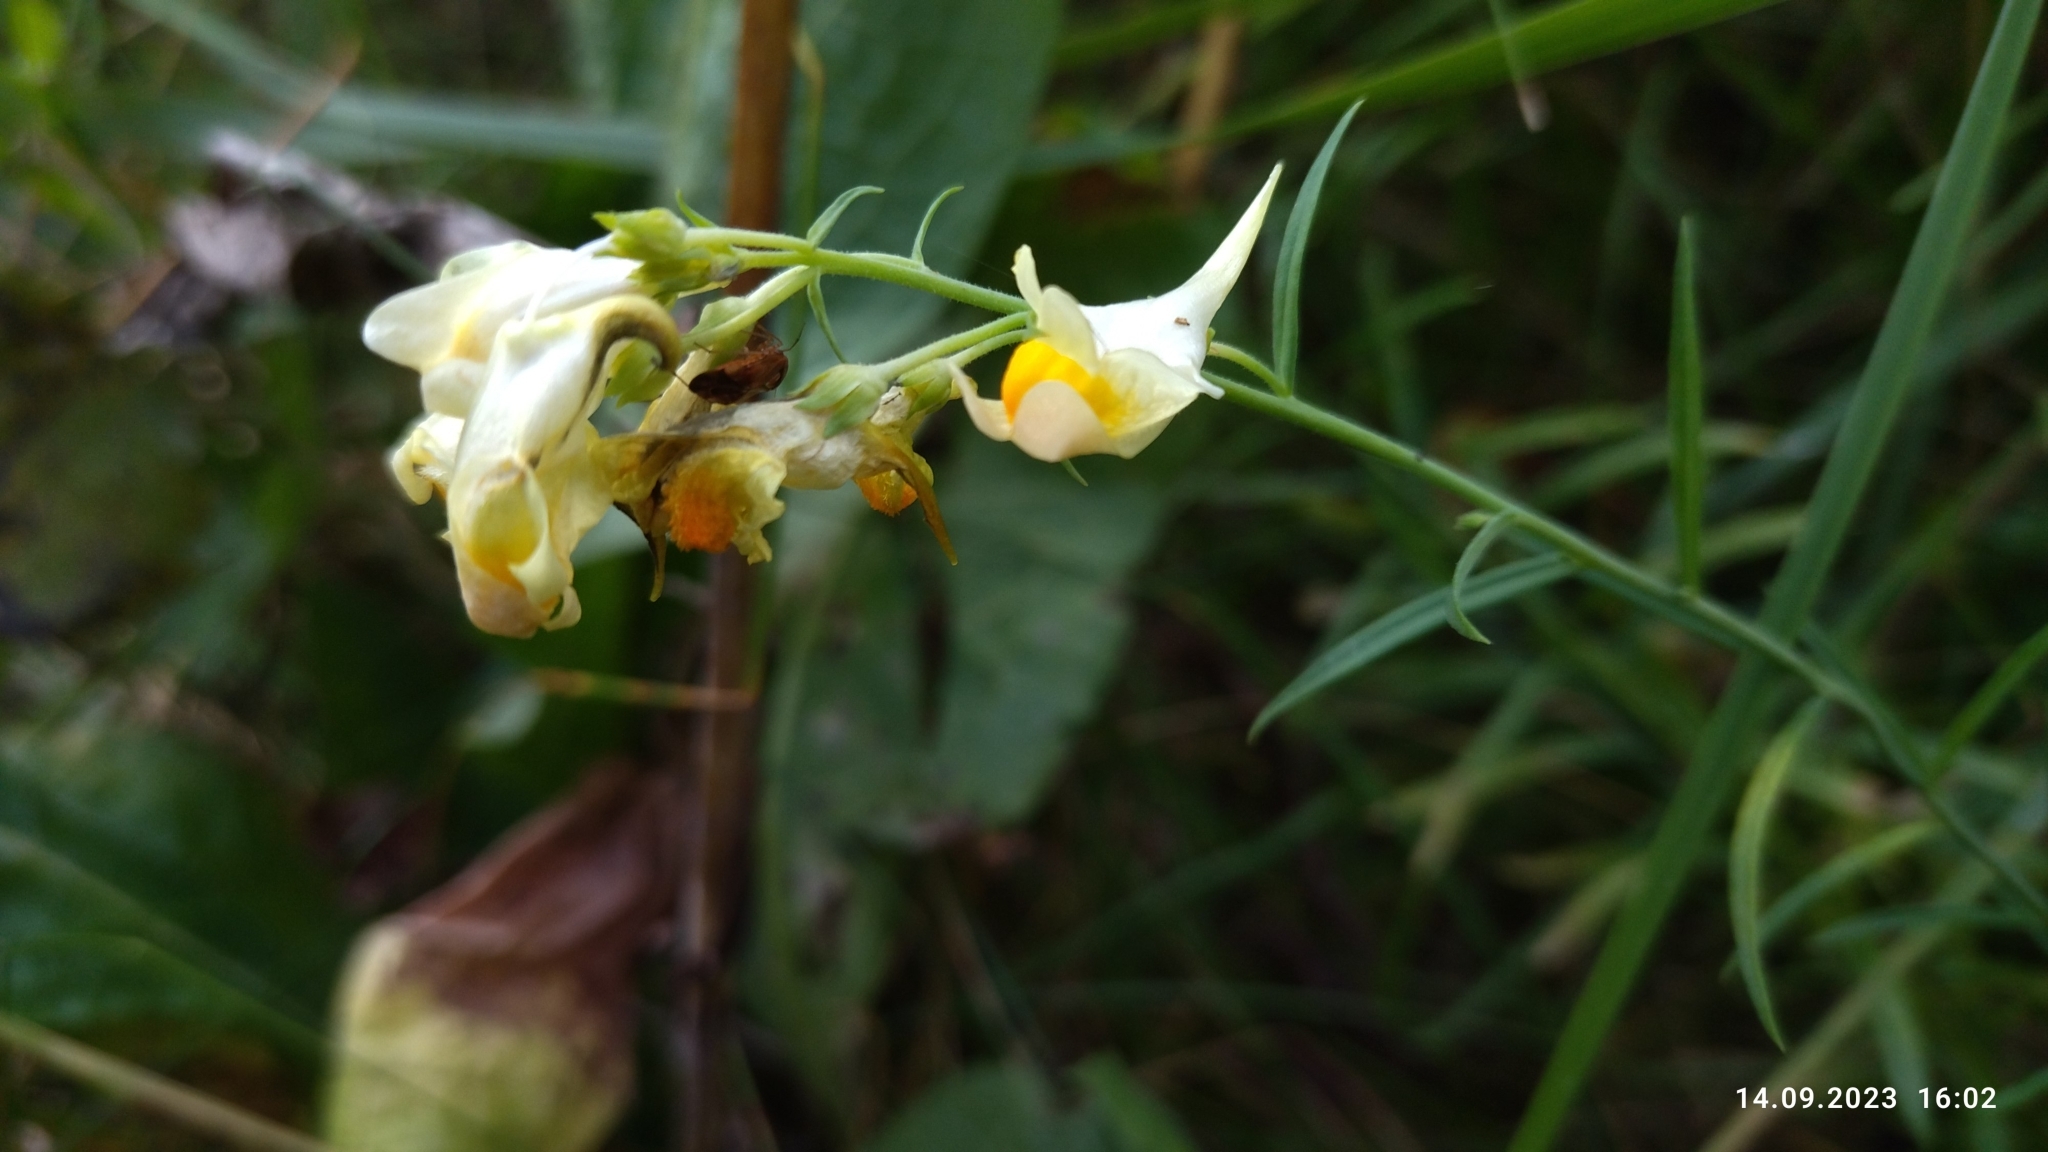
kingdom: Plantae
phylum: Tracheophyta
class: Magnoliopsida
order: Lamiales
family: Plantaginaceae
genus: Linaria
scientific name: Linaria vulgaris
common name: Butter and eggs
